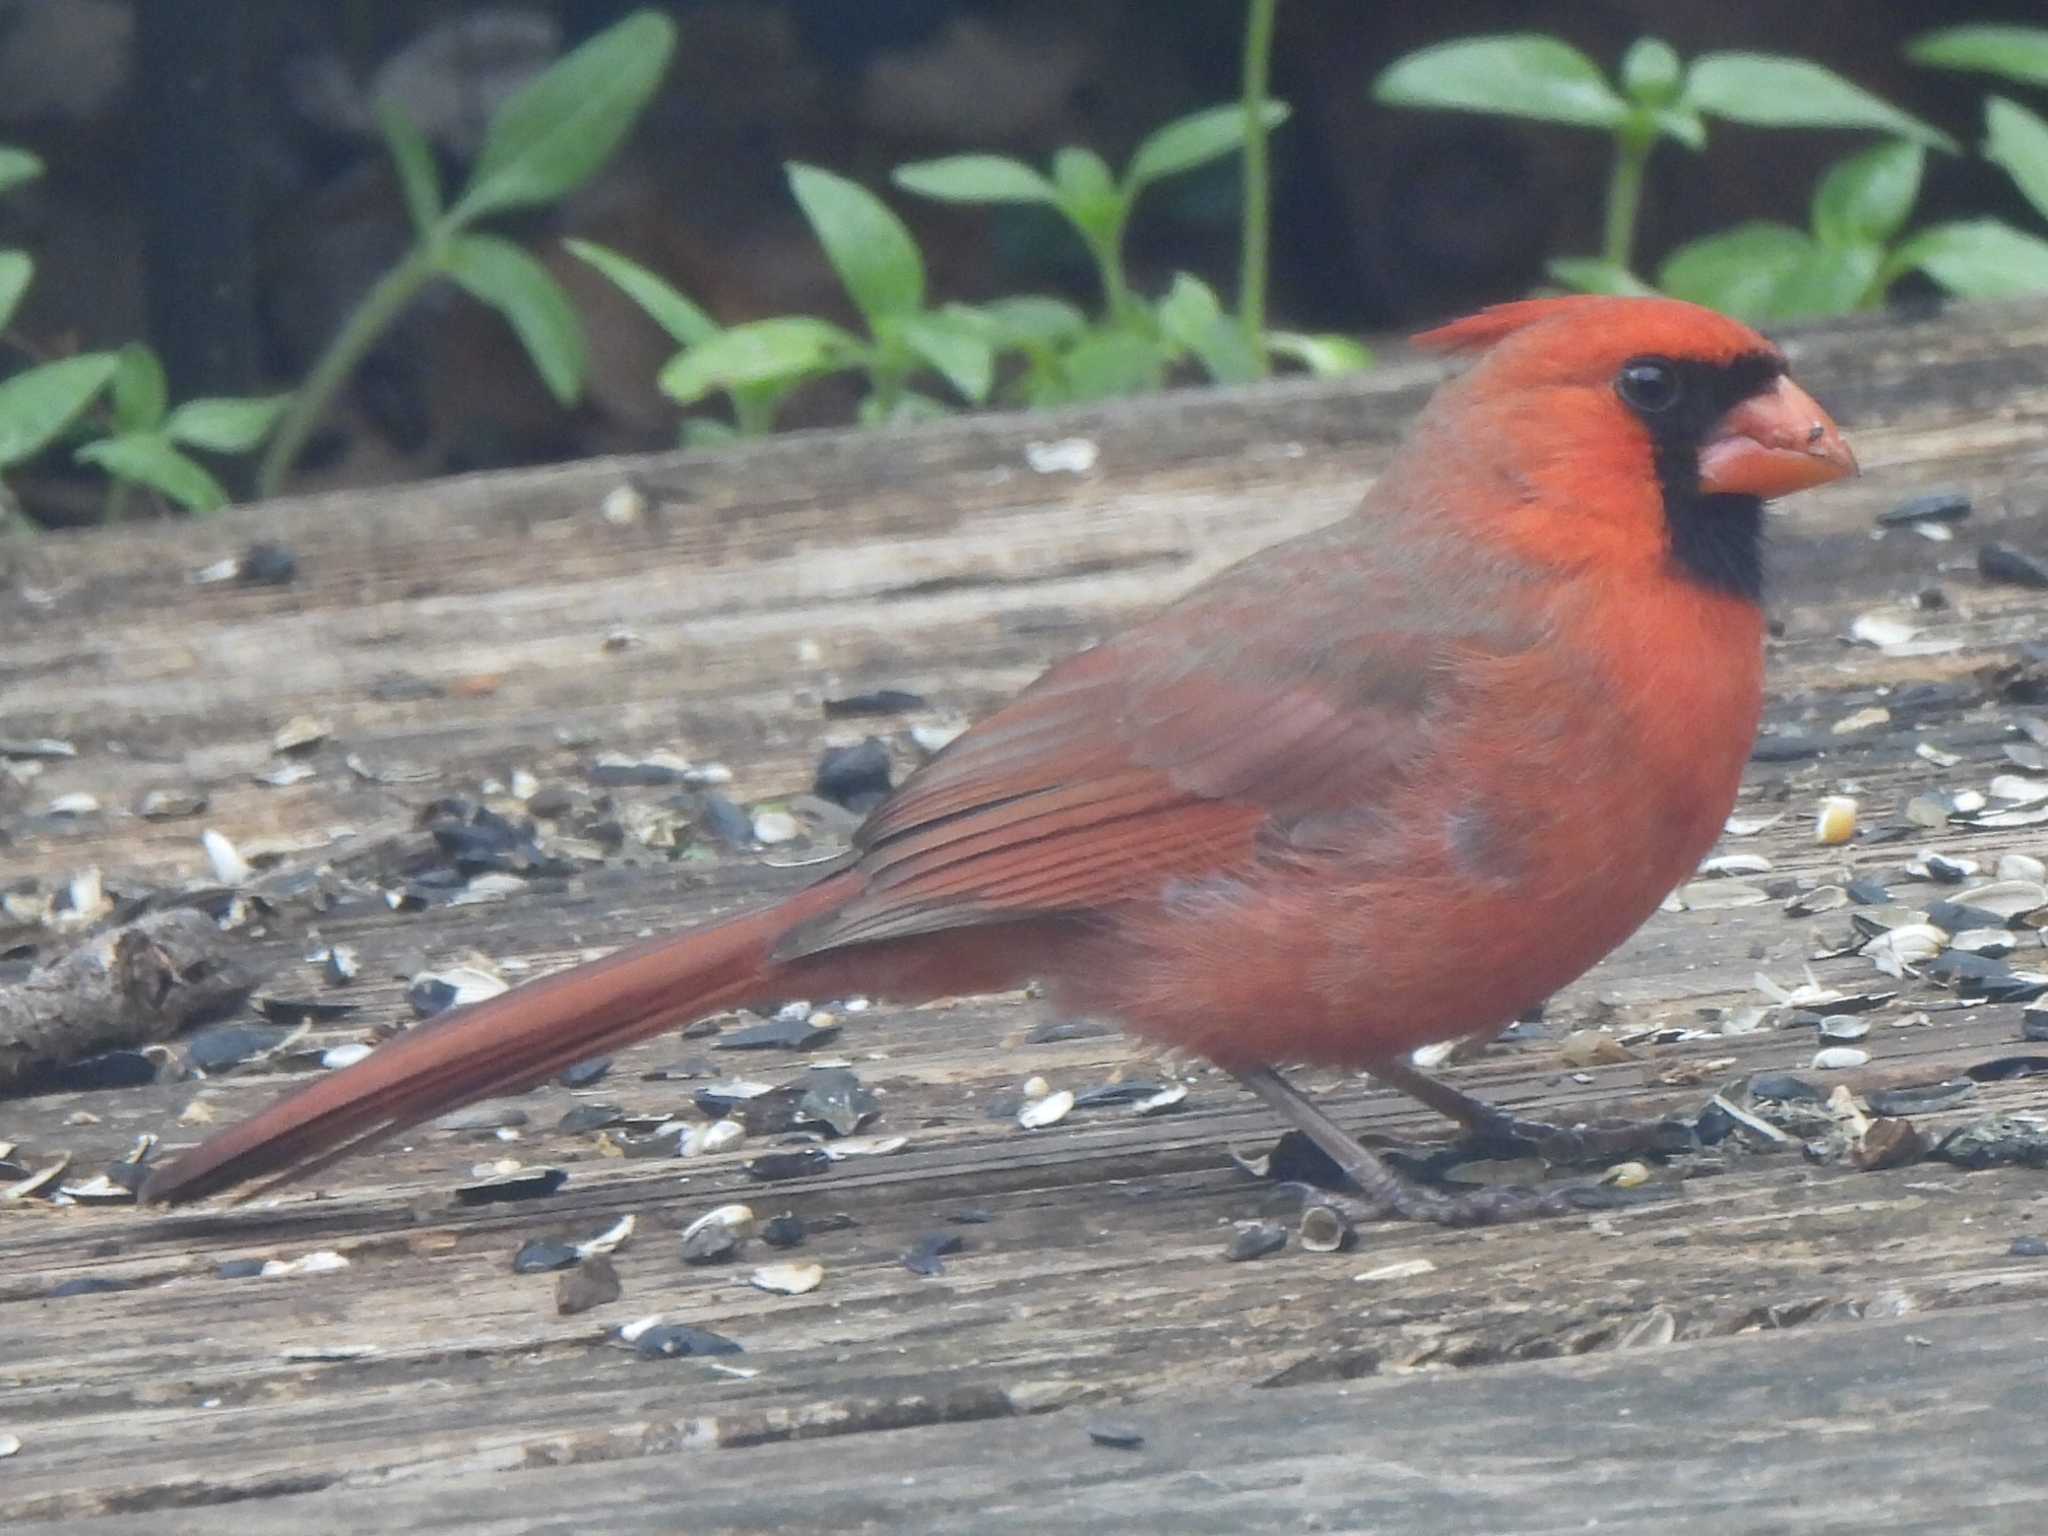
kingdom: Animalia
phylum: Chordata
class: Aves
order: Passeriformes
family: Cardinalidae
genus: Cardinalis
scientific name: Cardinalis cardinalis
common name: Northern cardinal
